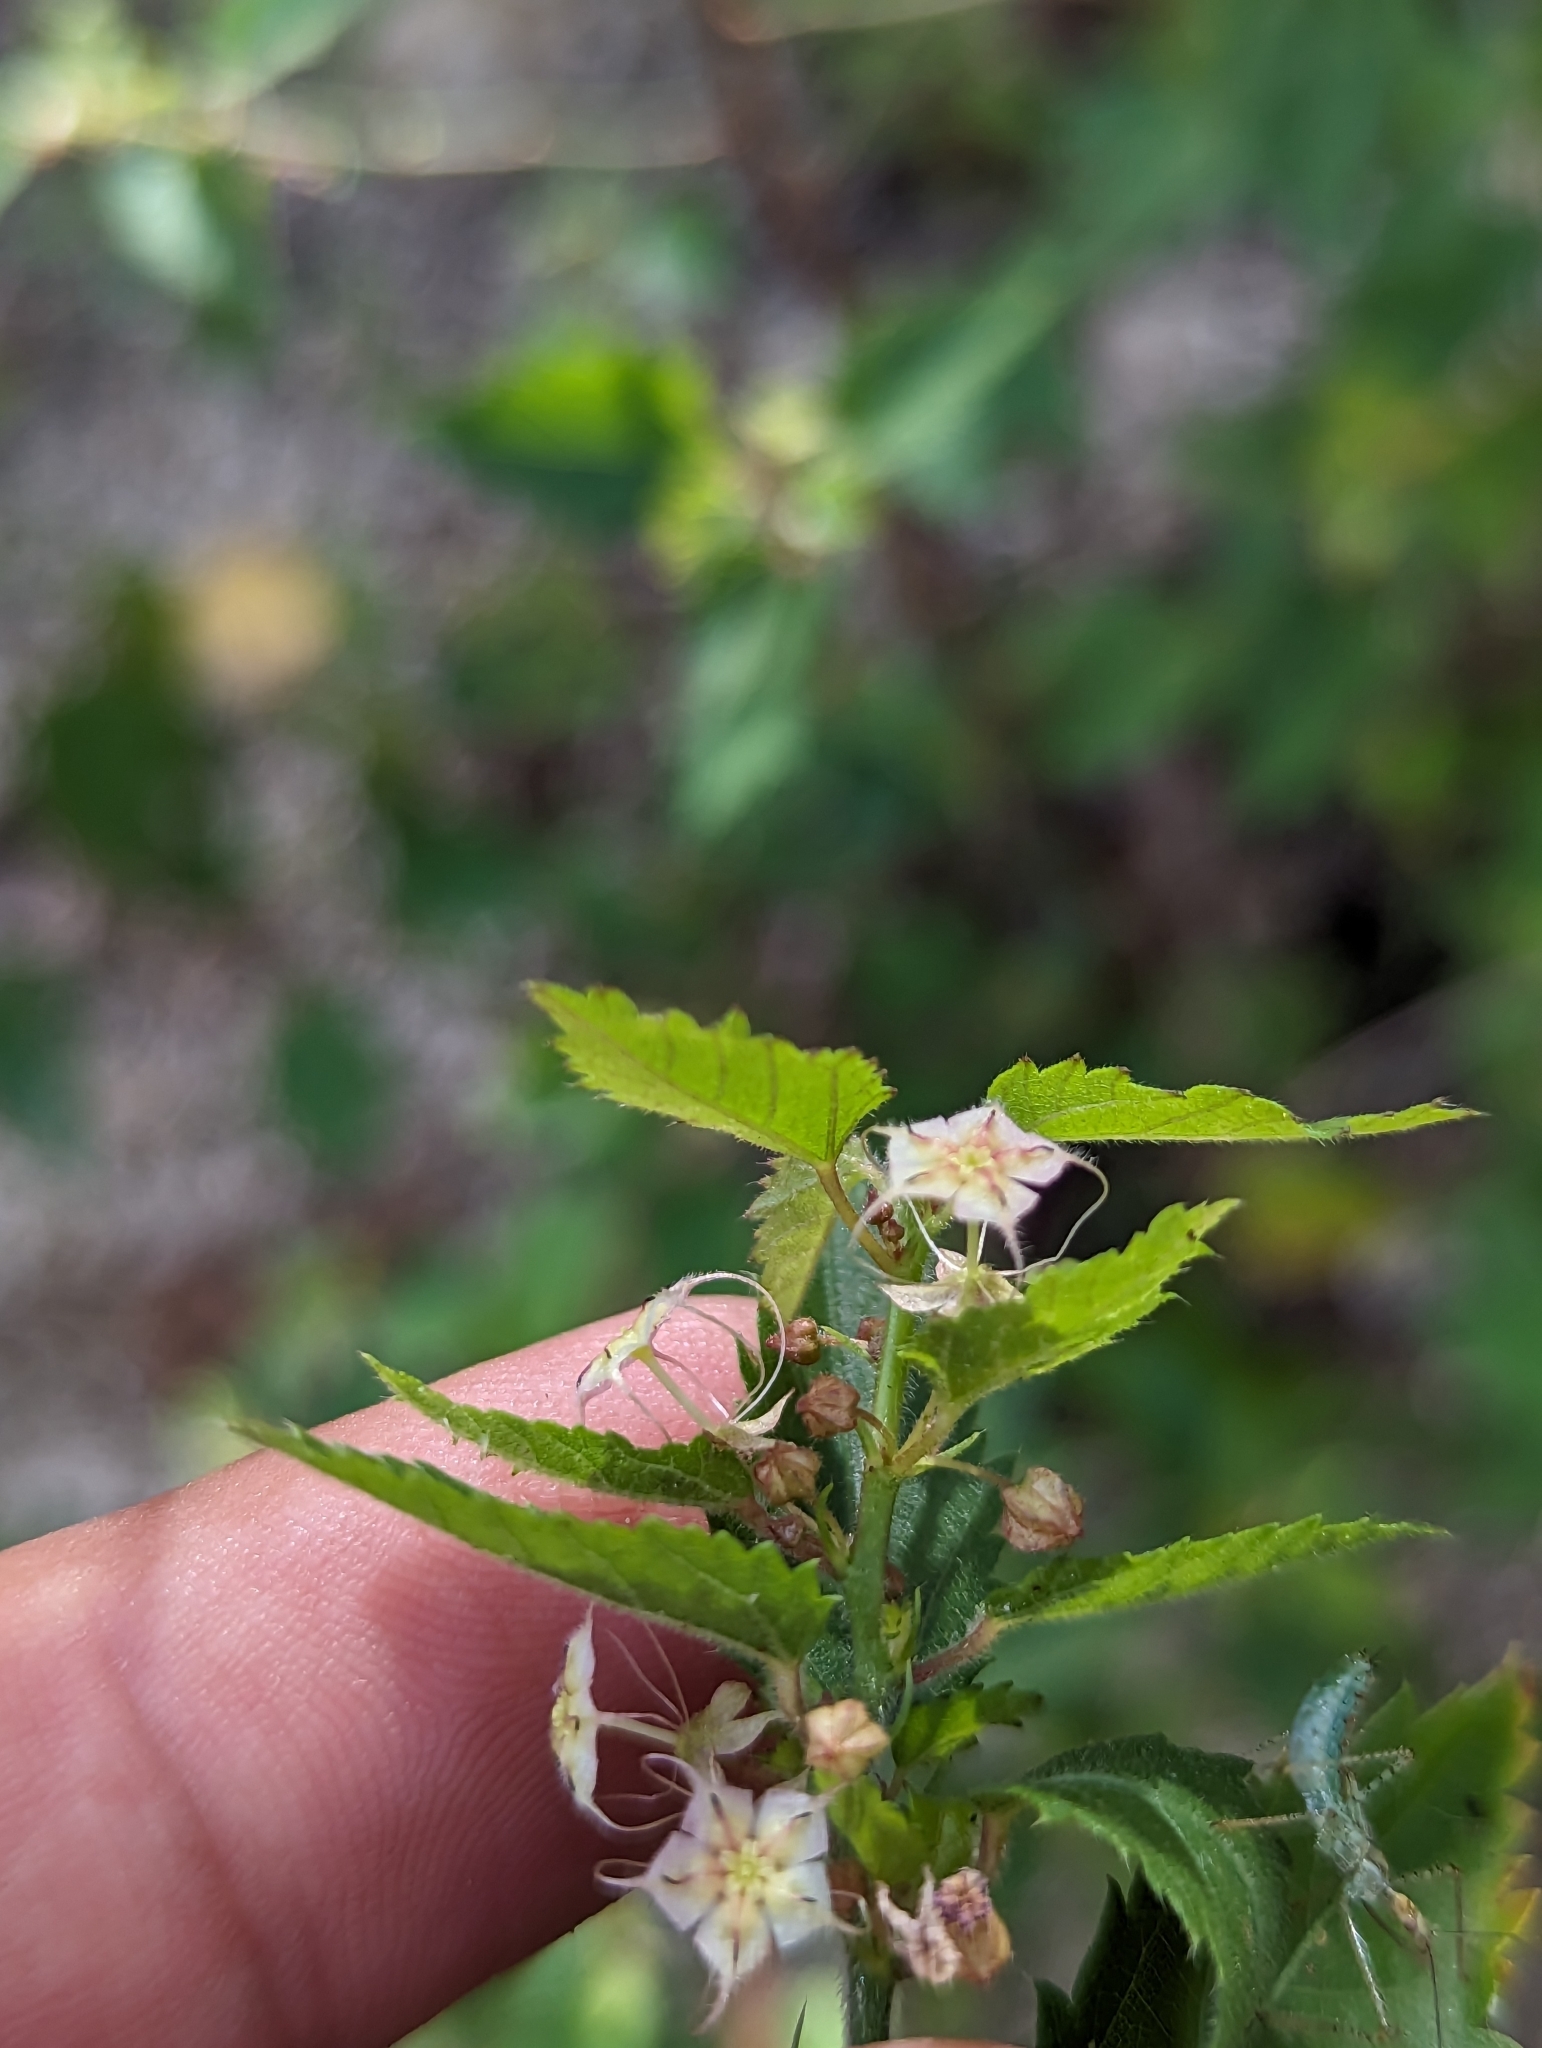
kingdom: Plantae
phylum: Tracheophyta
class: Magnoliopsida
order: Malvales
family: Malvaceae
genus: Ayenia
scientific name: Ayenia peninsularis
